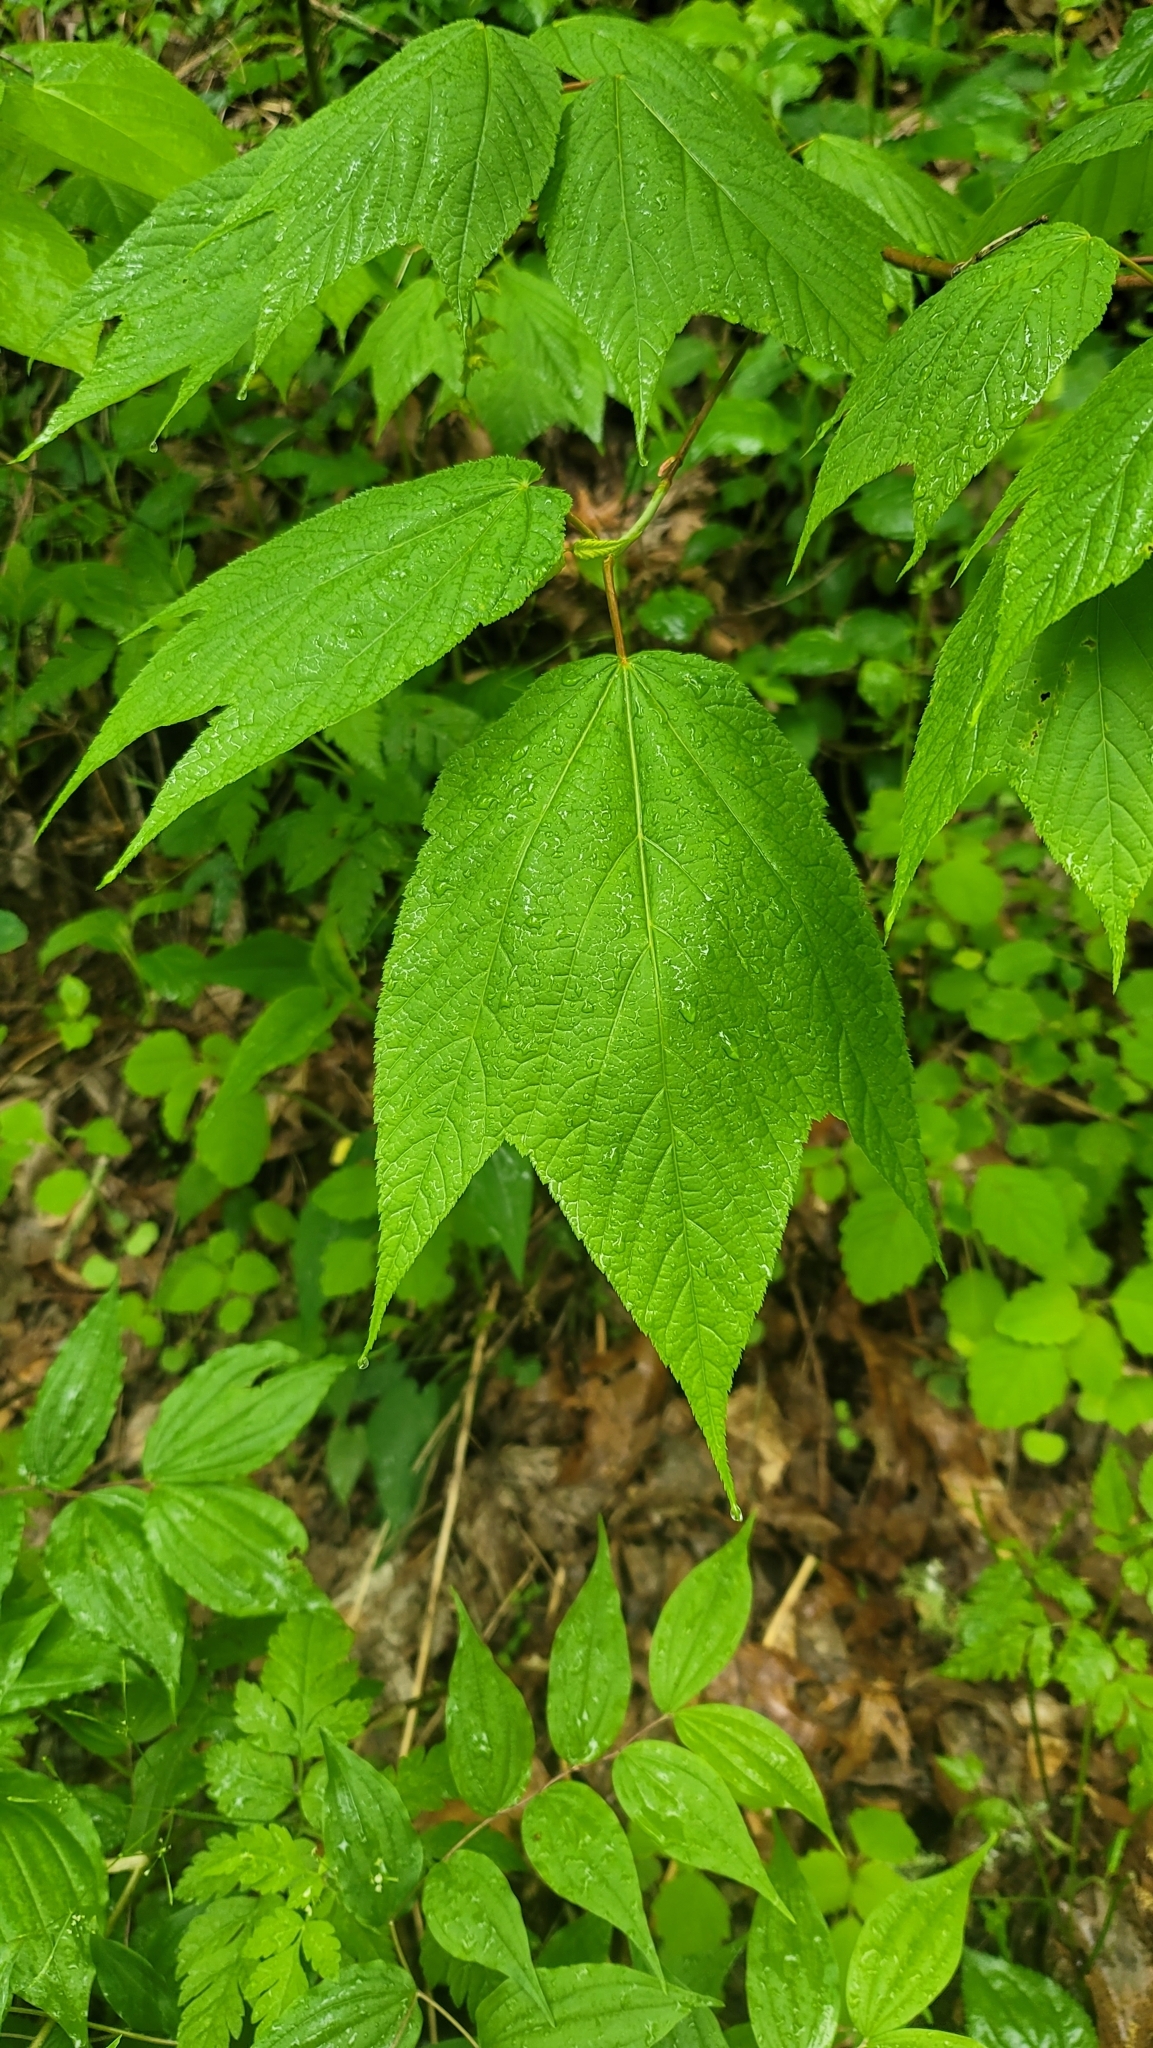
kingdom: Plantae
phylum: Tracheophyta
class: Magnoliopsida
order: Sapindales
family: Sapindaceae
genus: Acer
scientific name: Acer pensylvanicum
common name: Moosewood
